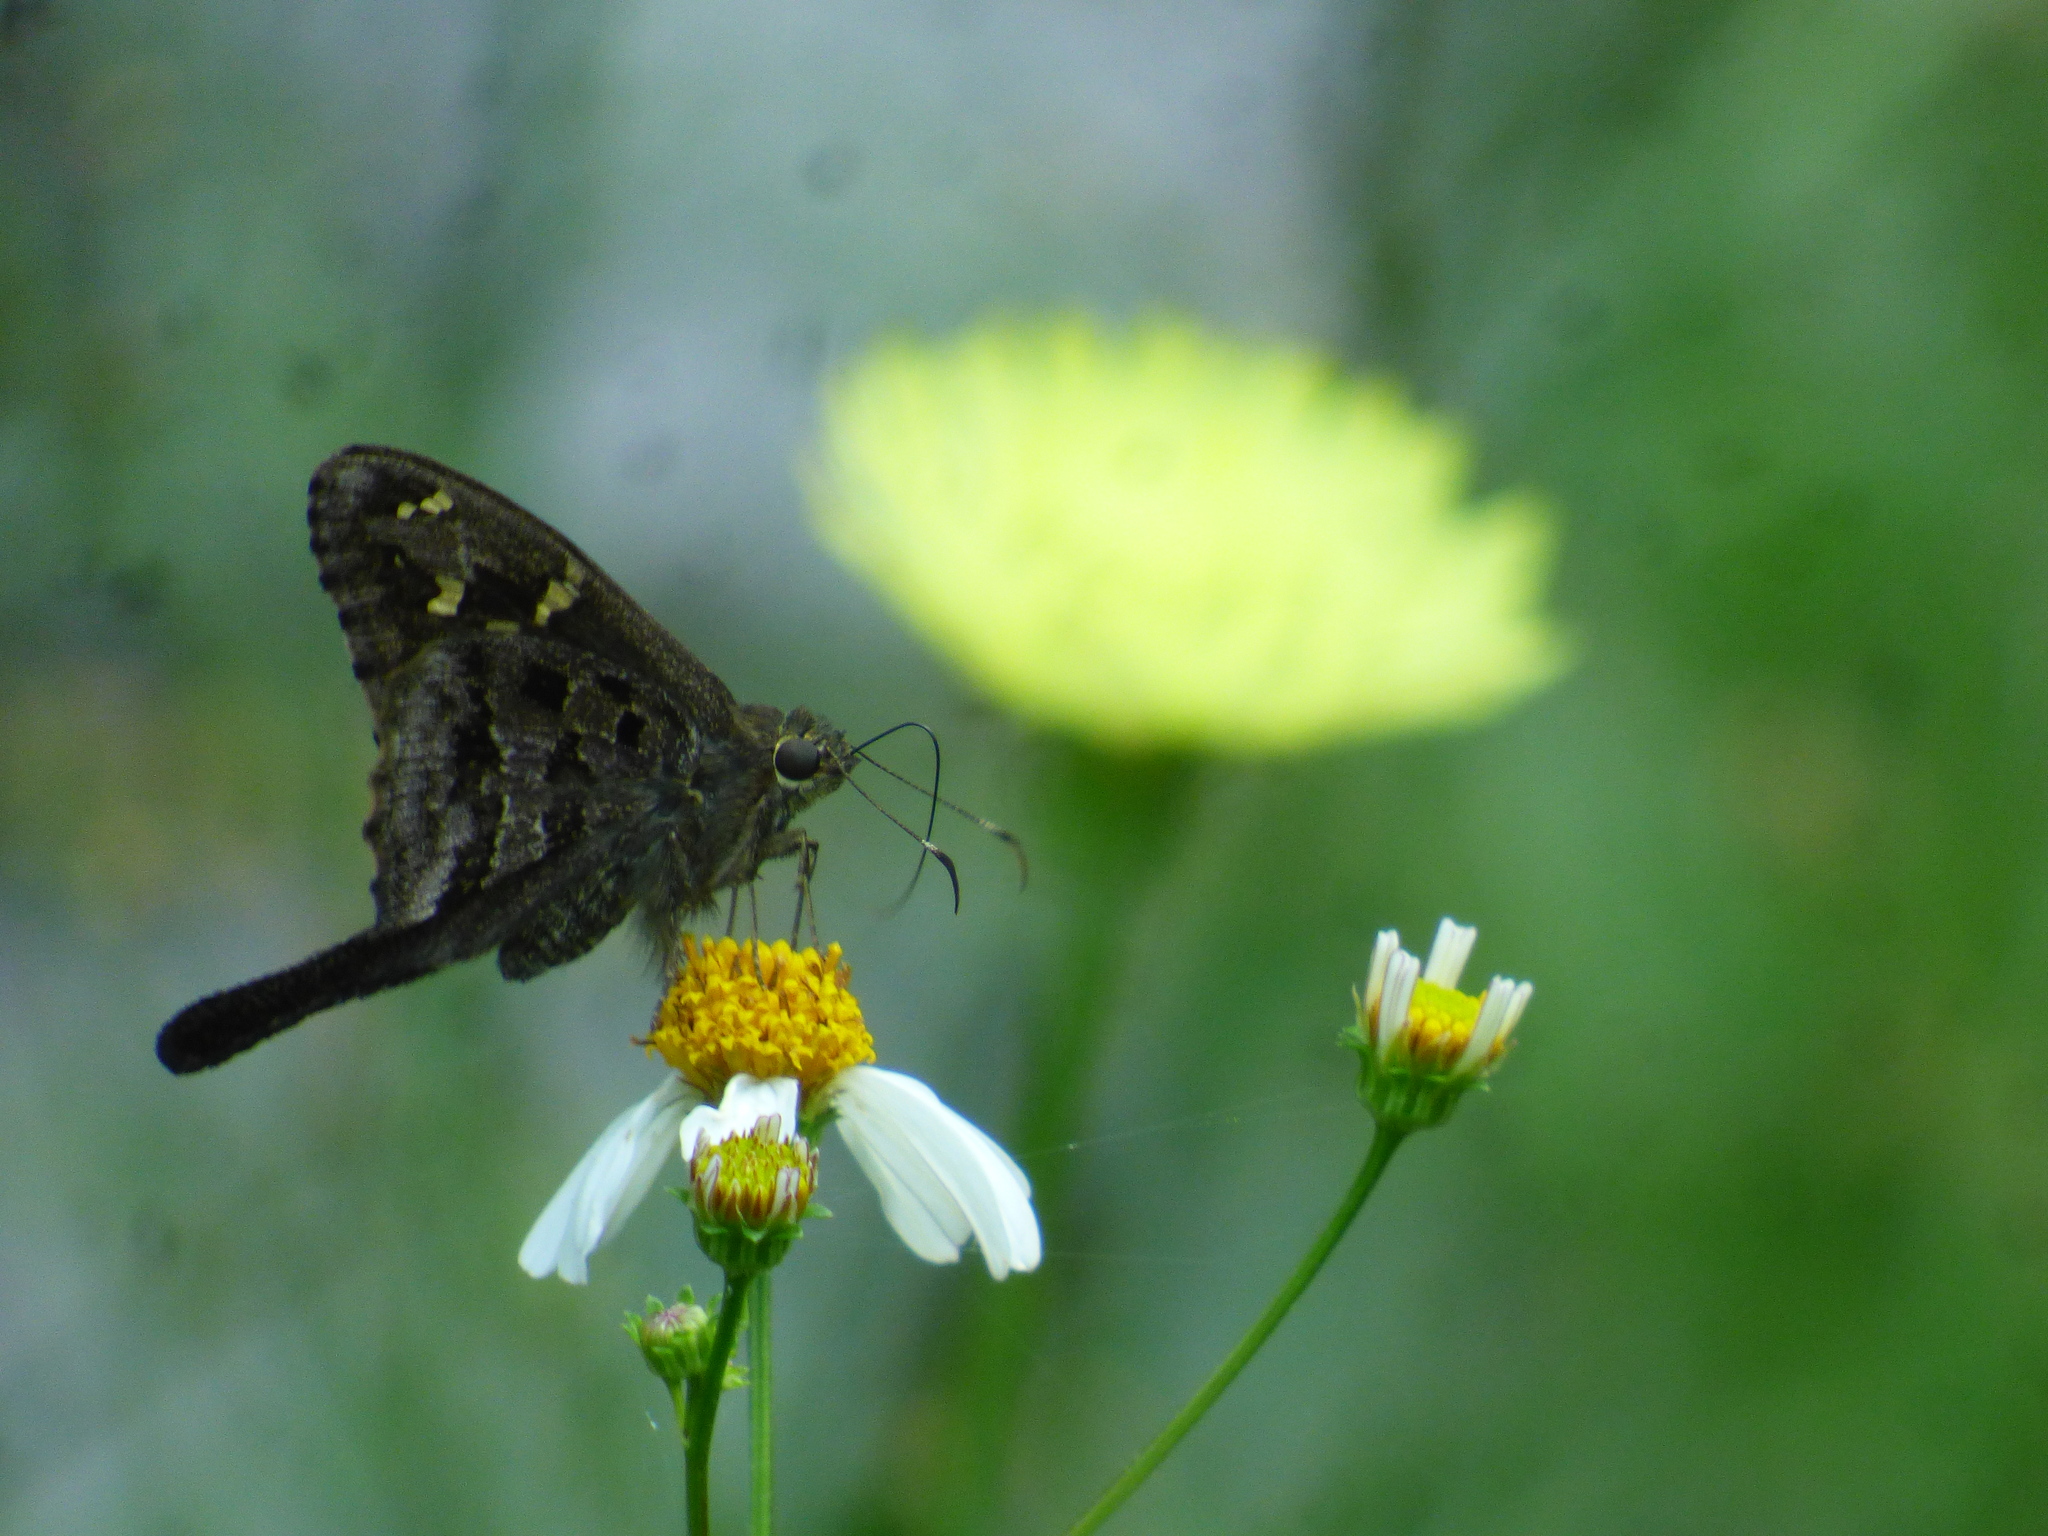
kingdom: Animalia
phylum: Arthropoda
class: Insecta
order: Lepidoptera
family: Hesperiidae
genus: Thorybes
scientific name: Thorybes
